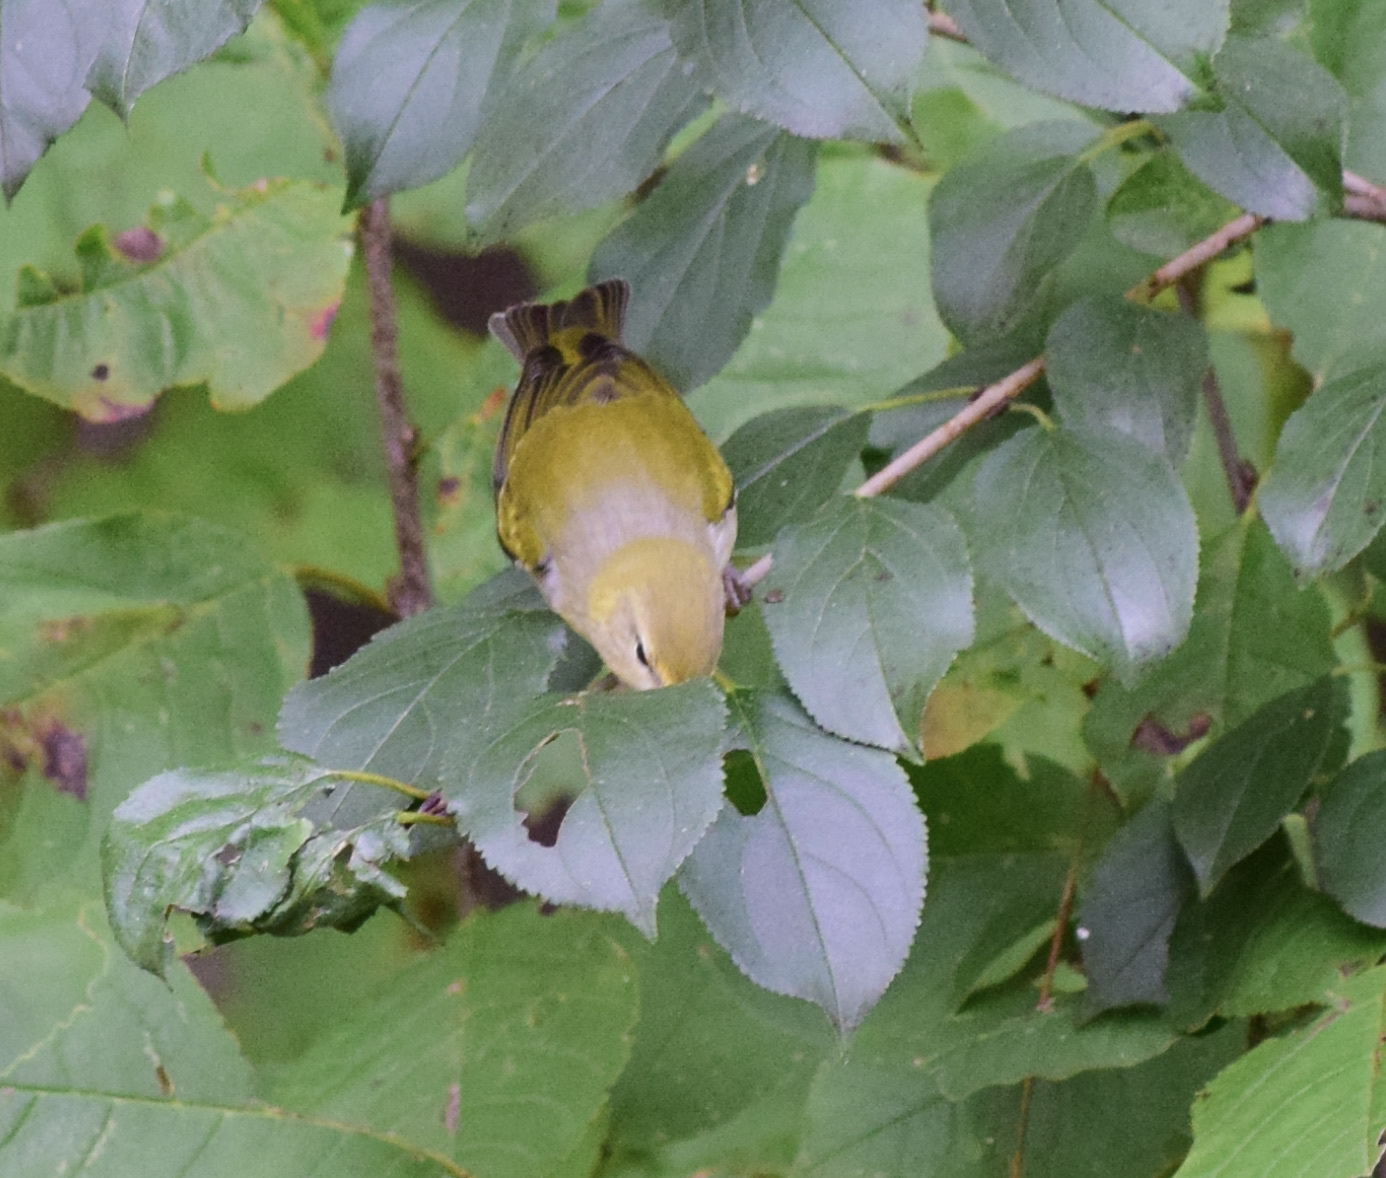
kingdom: Animalia
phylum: Chordata
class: Aves
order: Passeriformes
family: Parulidae
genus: Leiothlypis
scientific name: Leiothlypis peregrina
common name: Tennessee warbler
